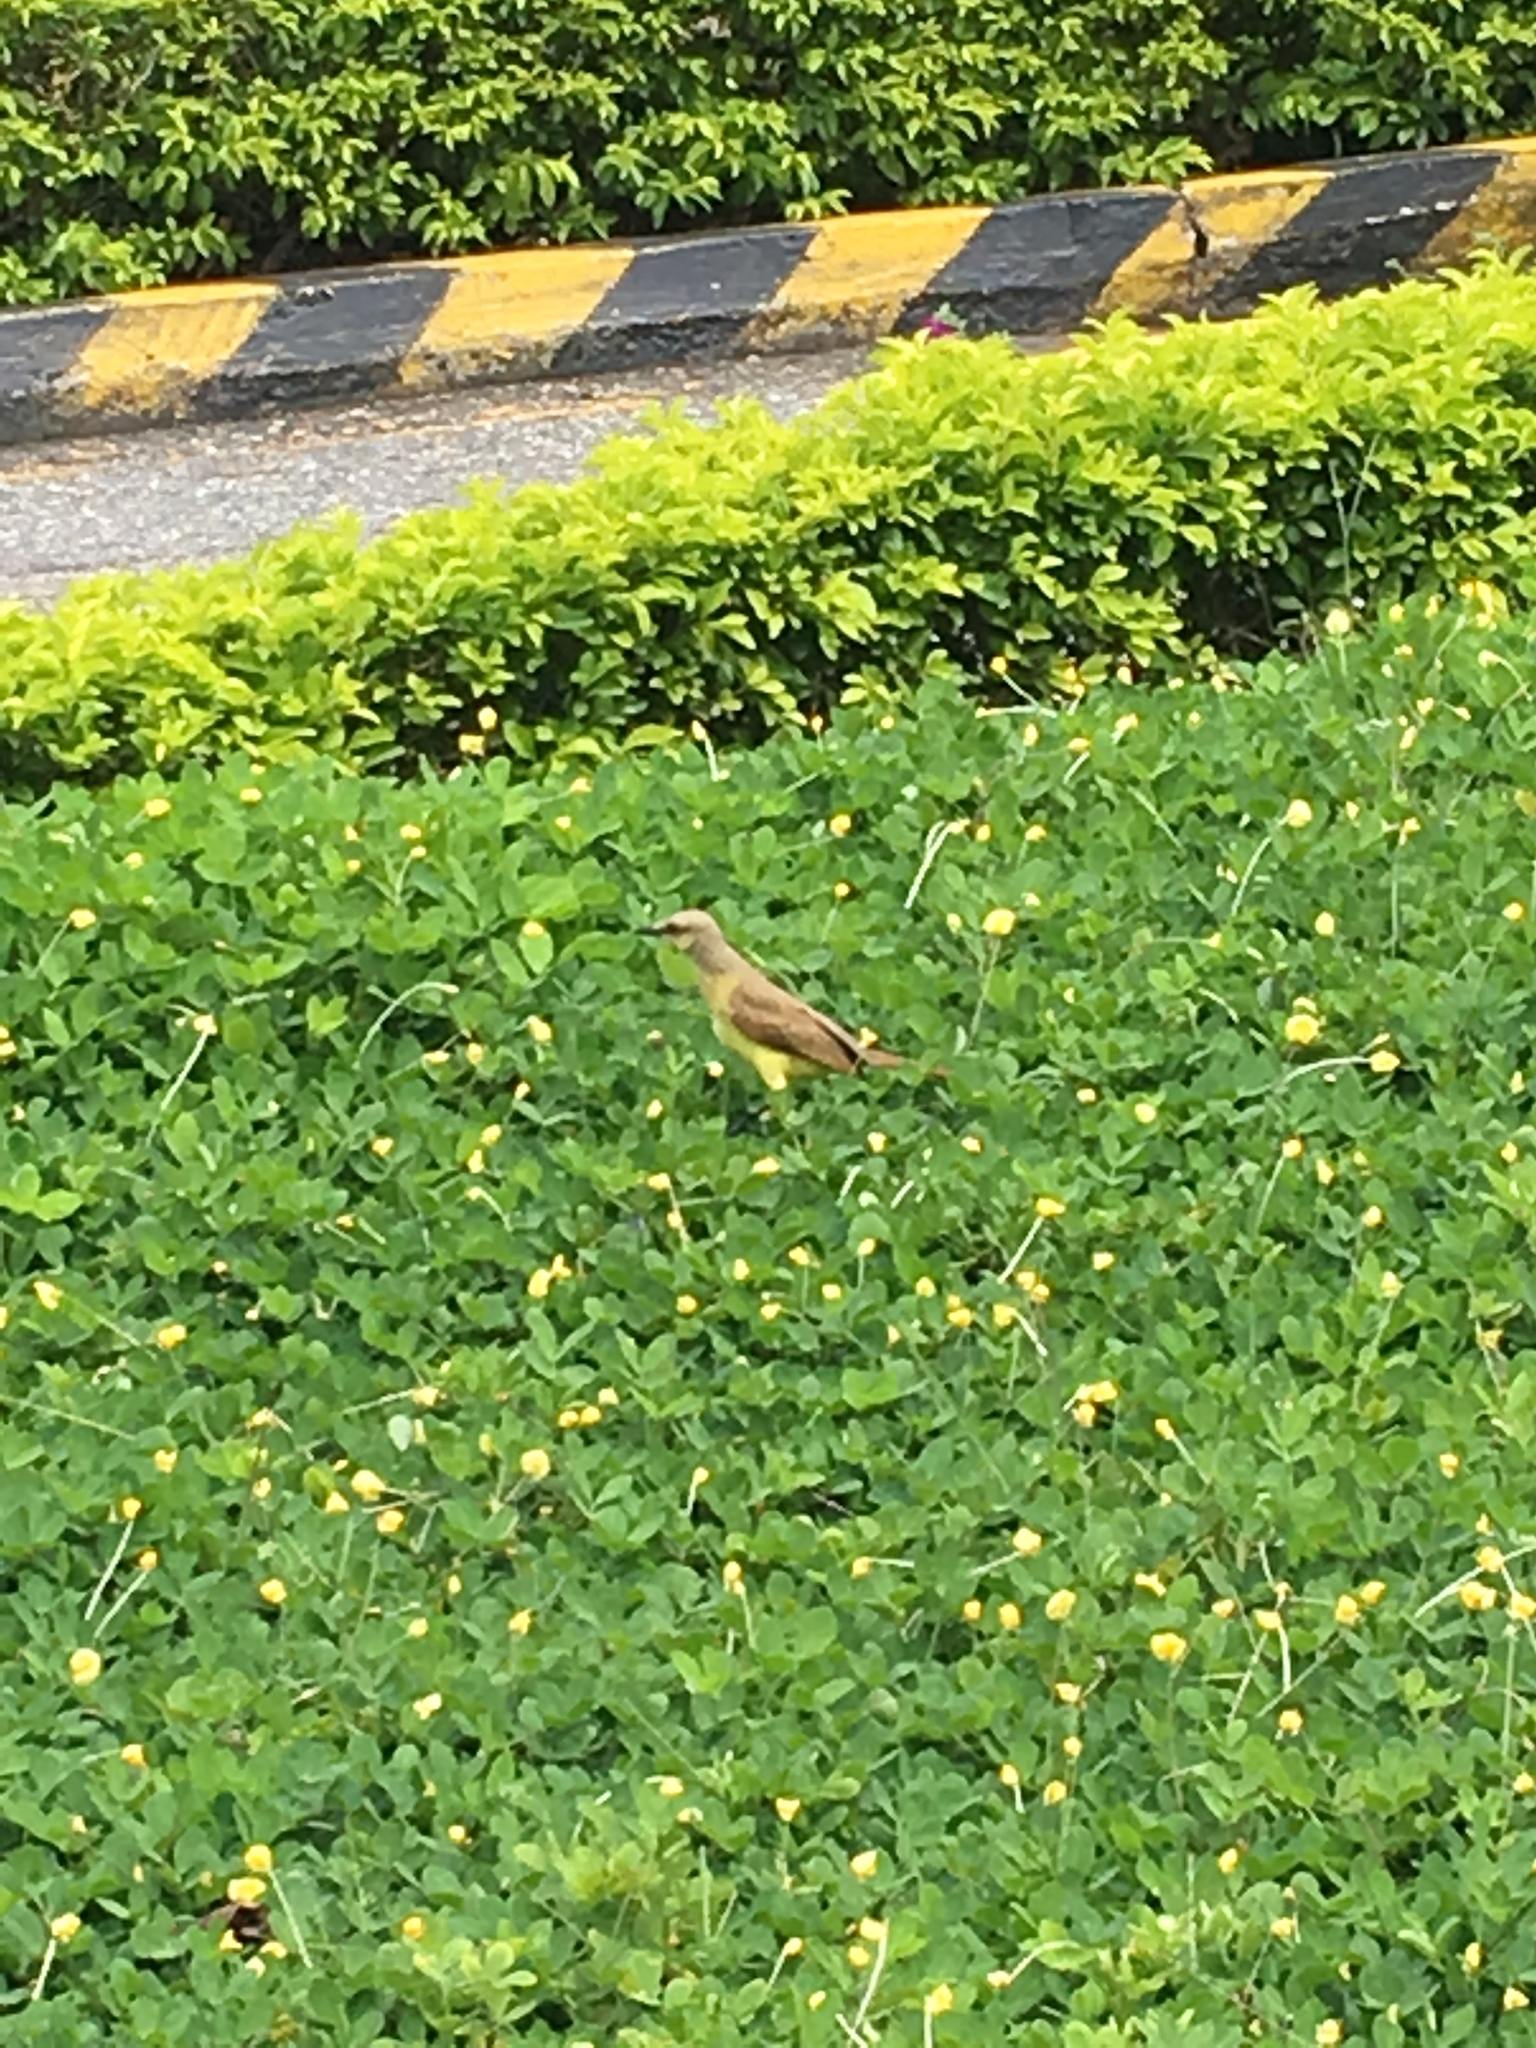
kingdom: Animalia
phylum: Chordata
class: Aves
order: Passeriformes
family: Tyrannidae
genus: Machetornis
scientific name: Machetornis rixosa
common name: Cattle tyrant
